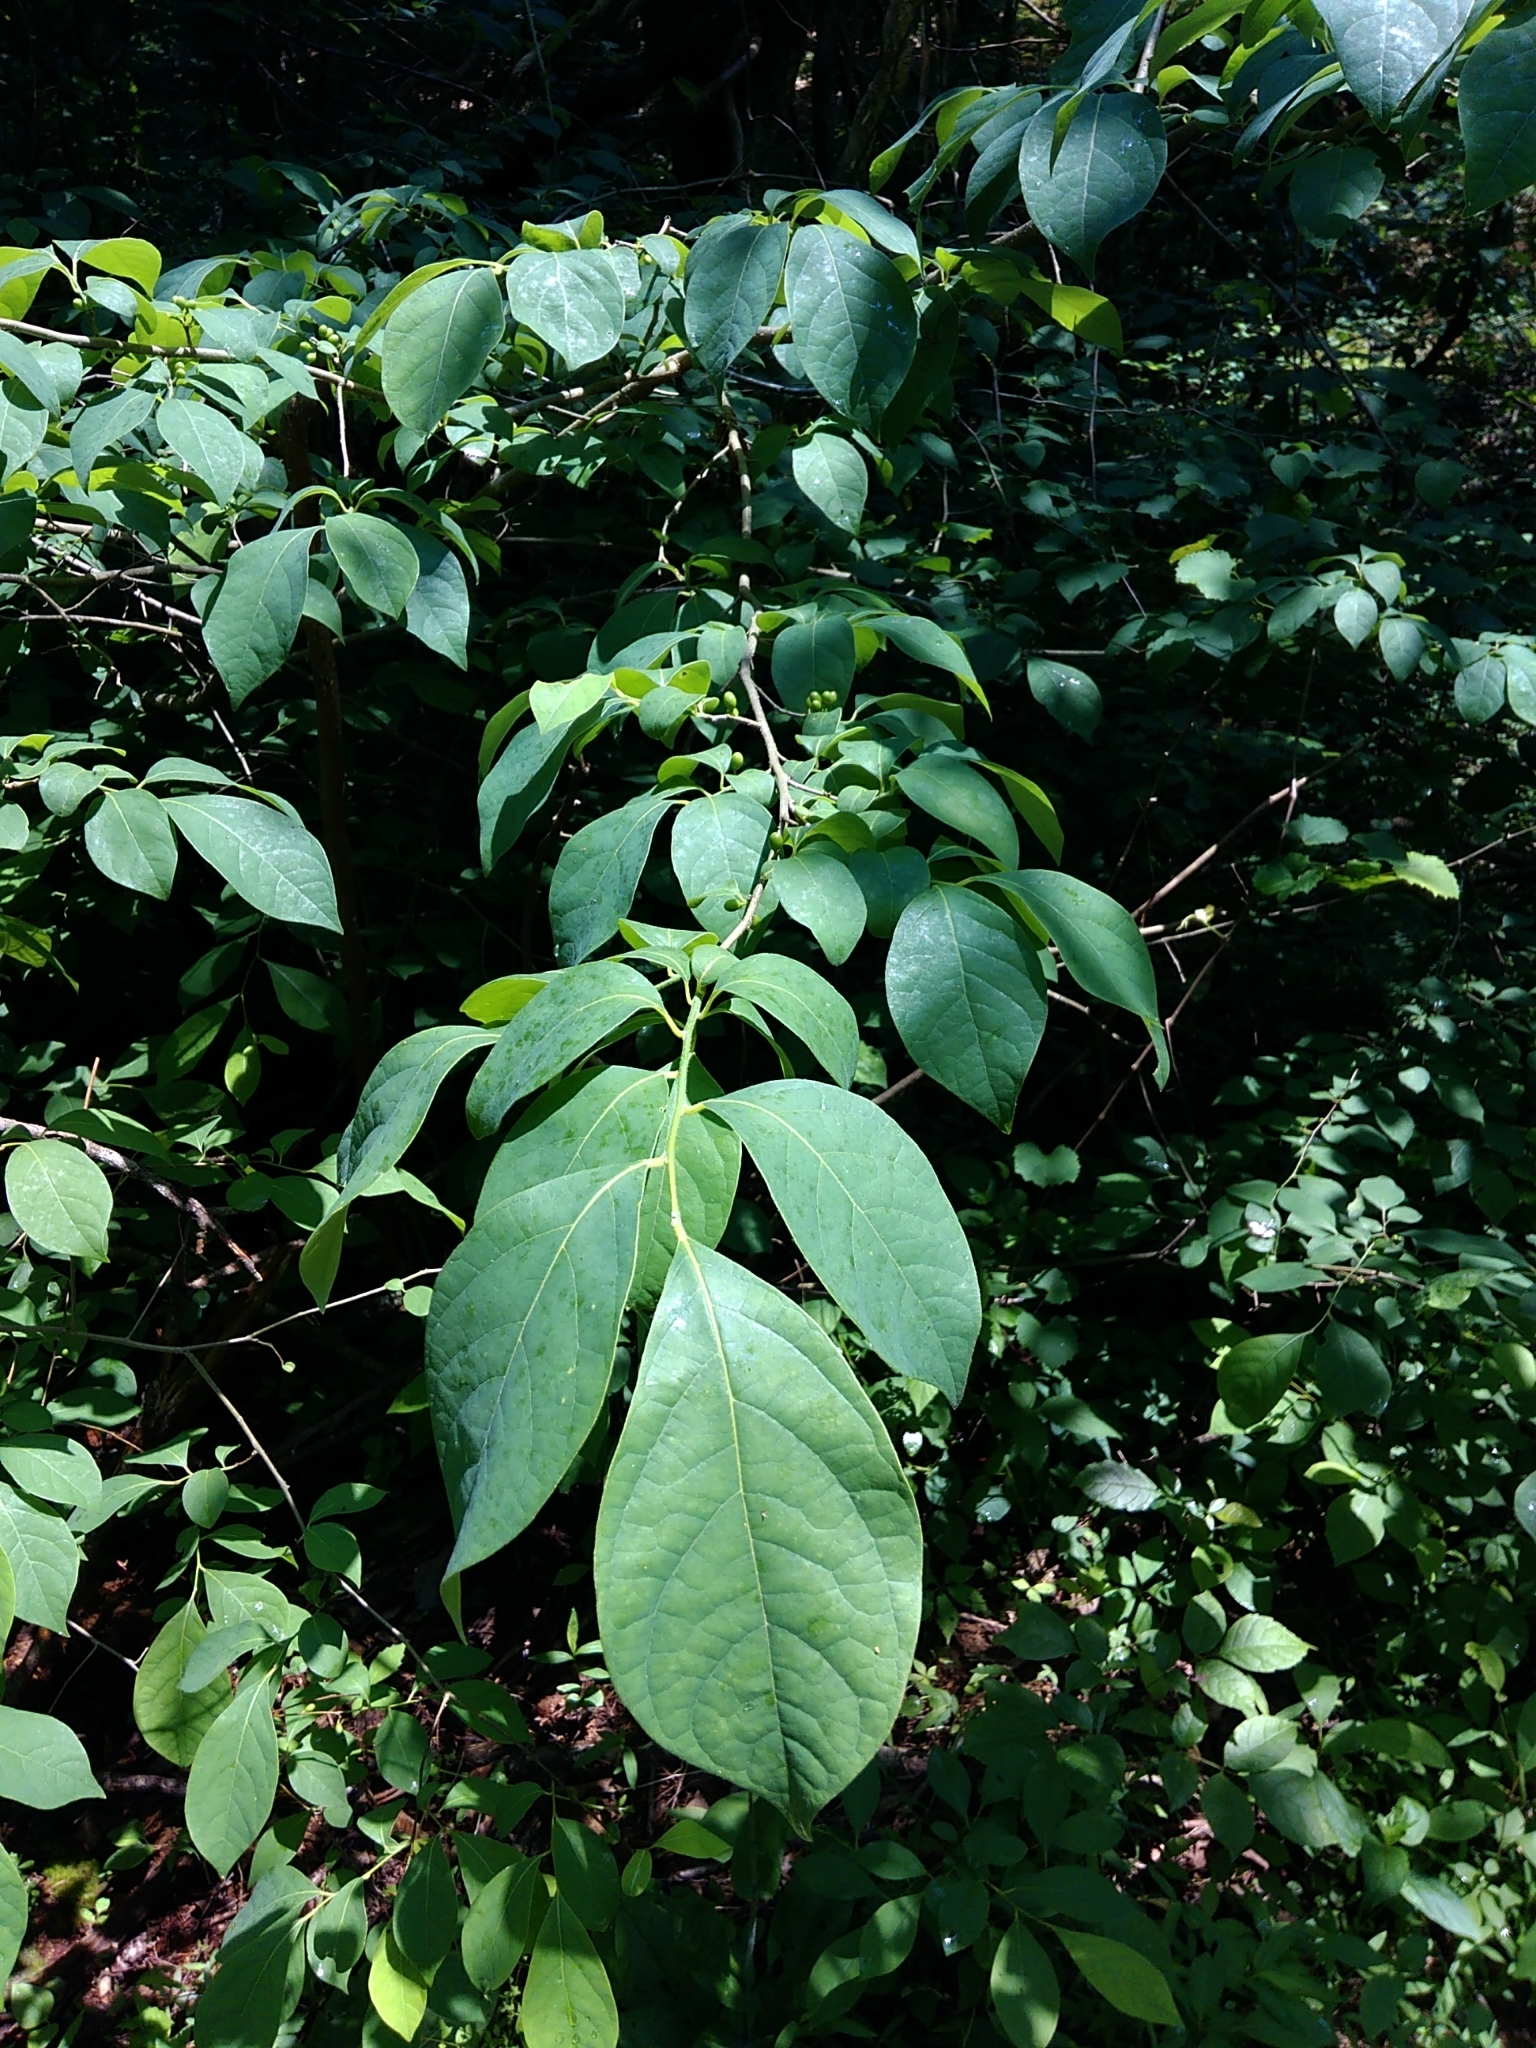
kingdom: Plantae
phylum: Tracheophyta
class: Magnoliopsida
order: Laurales
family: Lauraceae
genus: Lindera
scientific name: Lindera benzoin
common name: Spicebush
